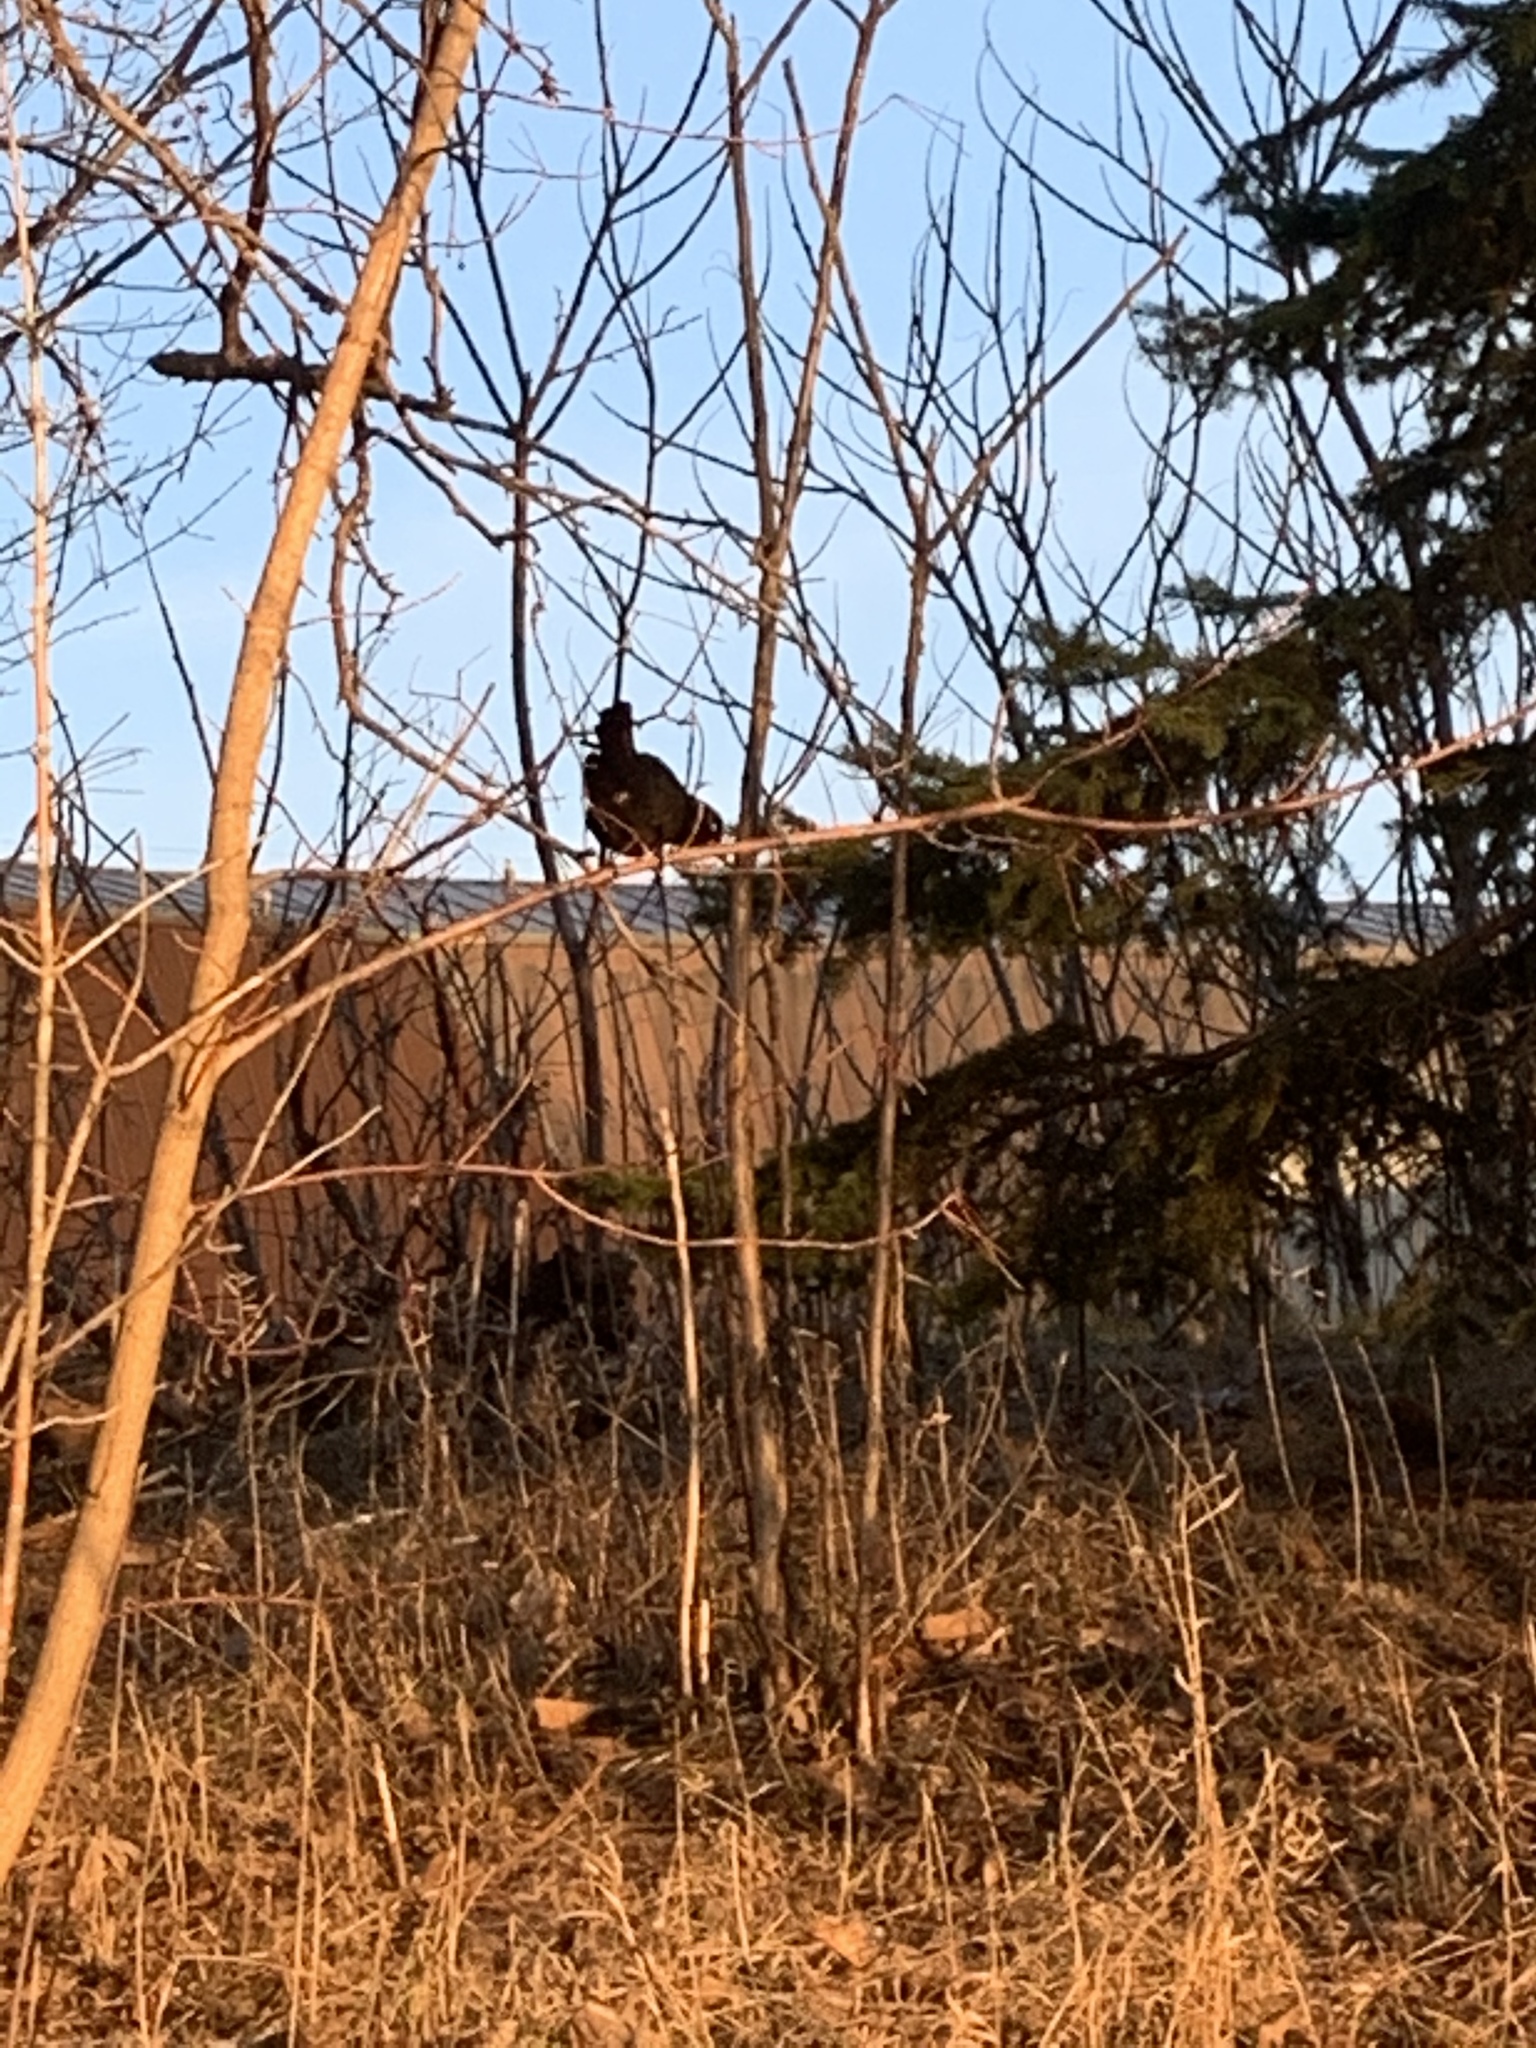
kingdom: Animalia
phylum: Chordata
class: Aves
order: Passeriformes
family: Icteridae
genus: Quiscalus
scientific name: Quiscalus quiscula
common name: Common grackle
